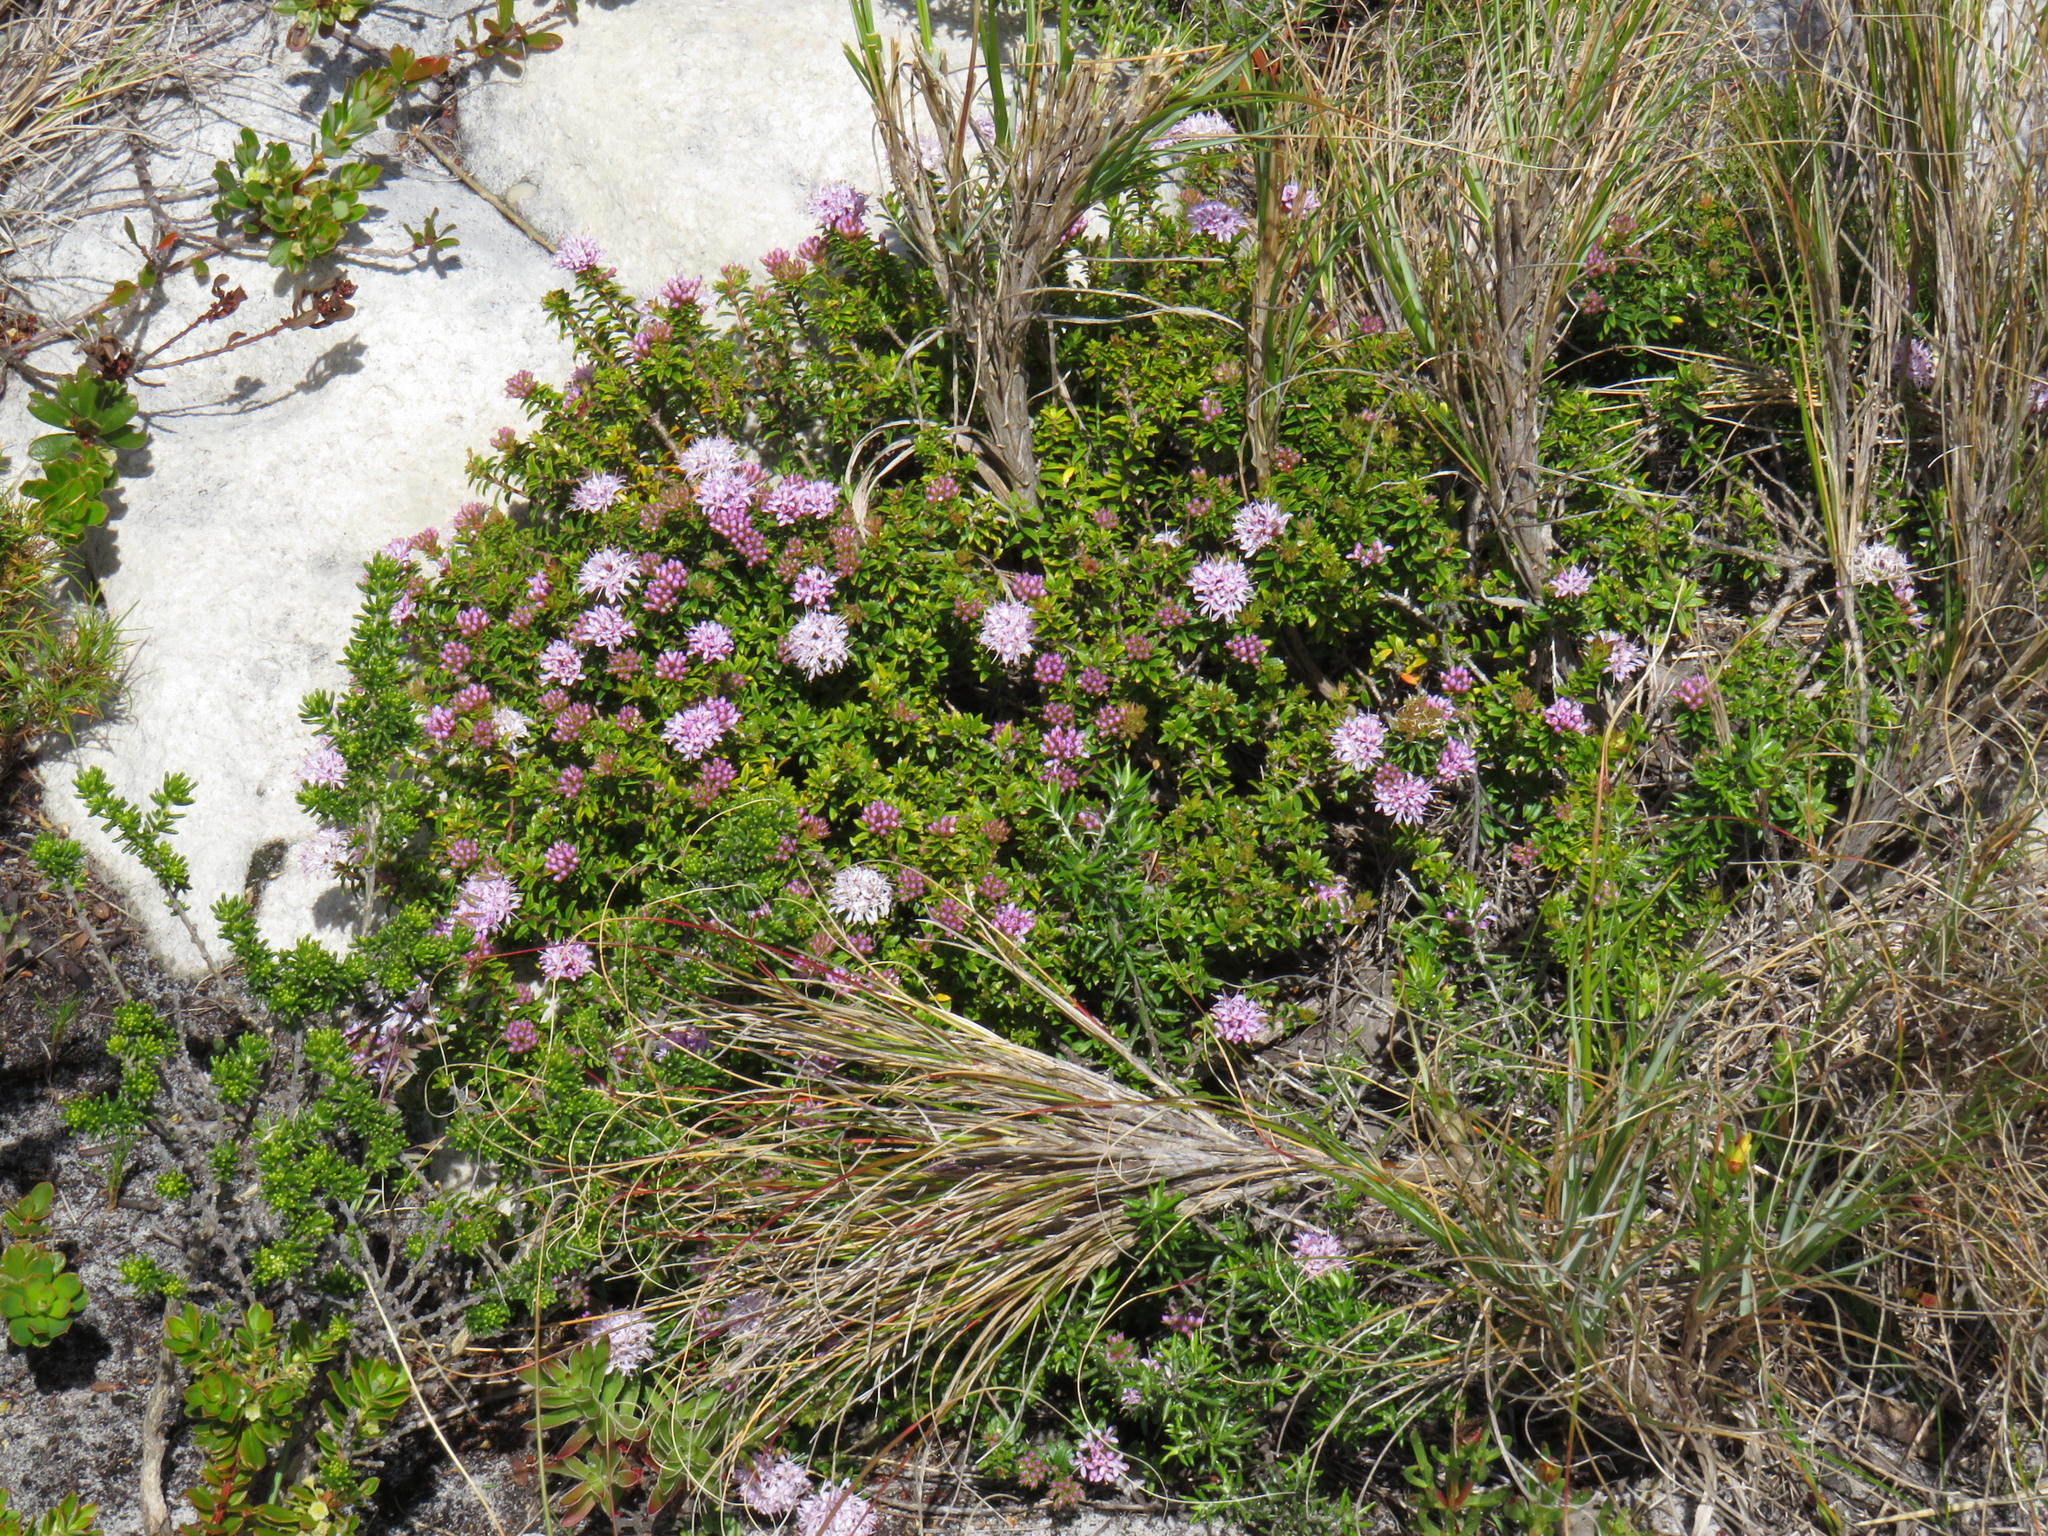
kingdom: Animalia
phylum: Arthropoda
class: Insecta
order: Hymenoptera
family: Formicidae
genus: Camponotus
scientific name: Camponotus niveosetosus
